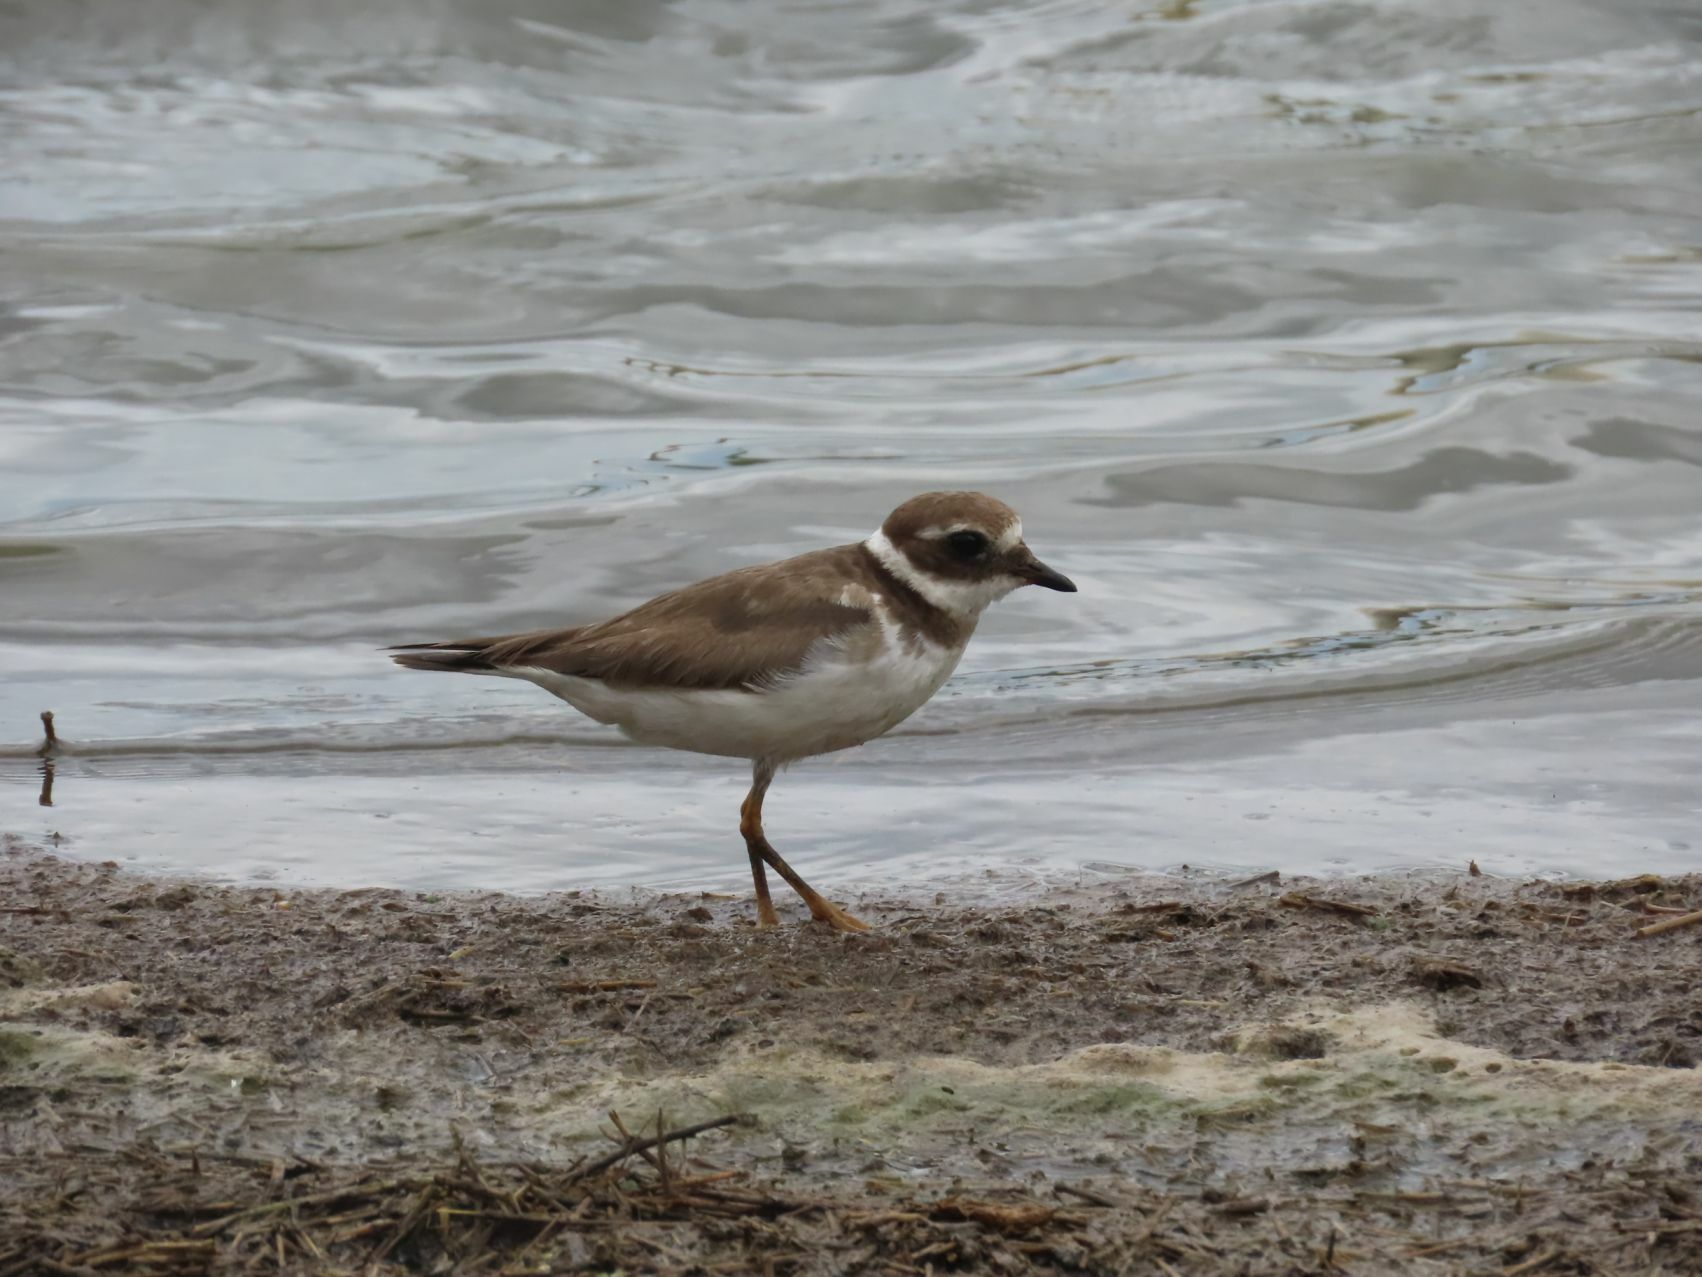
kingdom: Animalia
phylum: Chordata
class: Aves
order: Charadriiformes
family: Charadriidae
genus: Charadrius
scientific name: Charadrius hiaticula
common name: Common ringed plover
